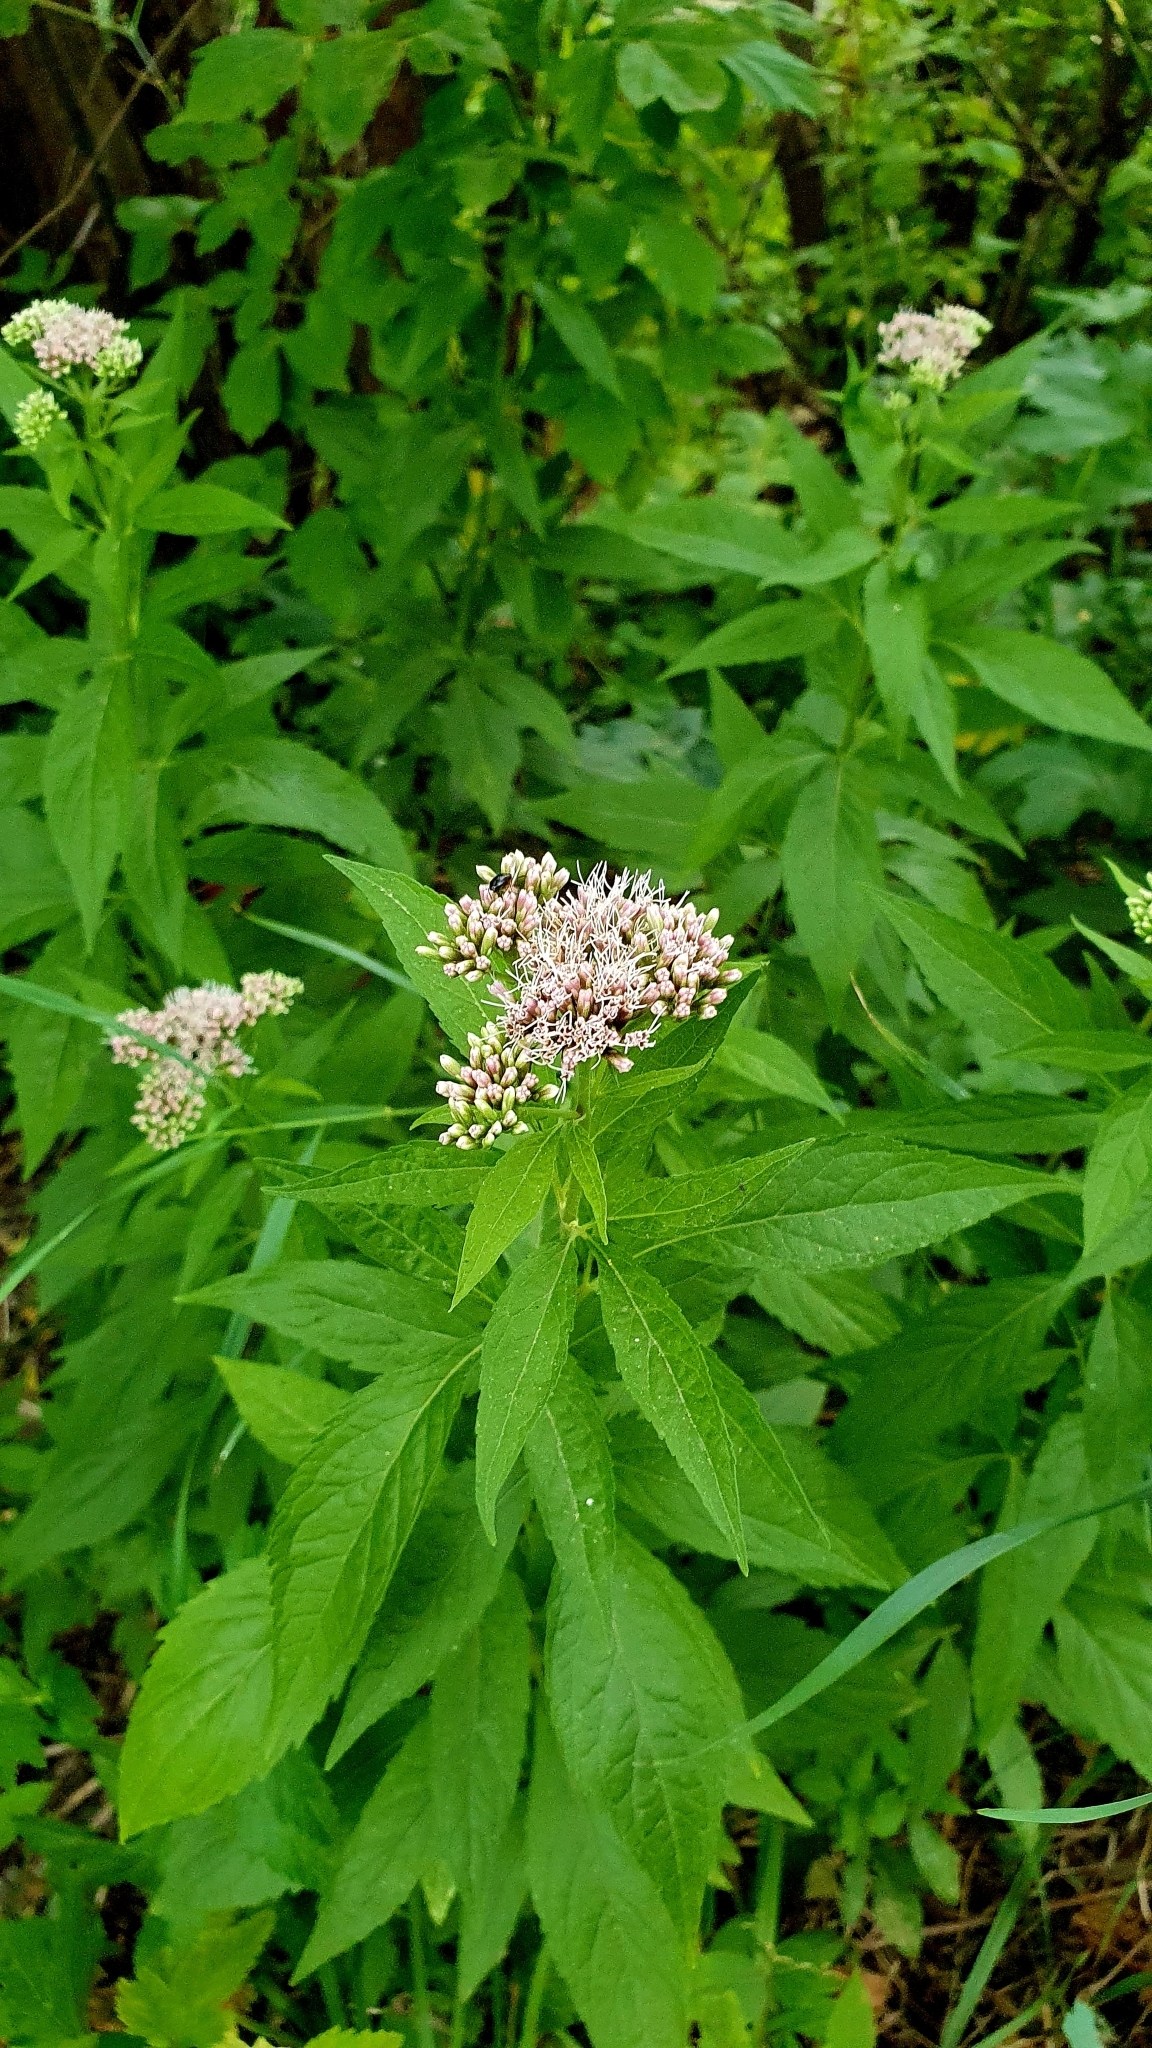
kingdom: Plantae
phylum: Tracheophyta
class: Magnoliopsida
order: Asterales
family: Asteraceae
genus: Eupatorium
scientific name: Eupatorium cannabinum
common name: Hemp-agrimony
